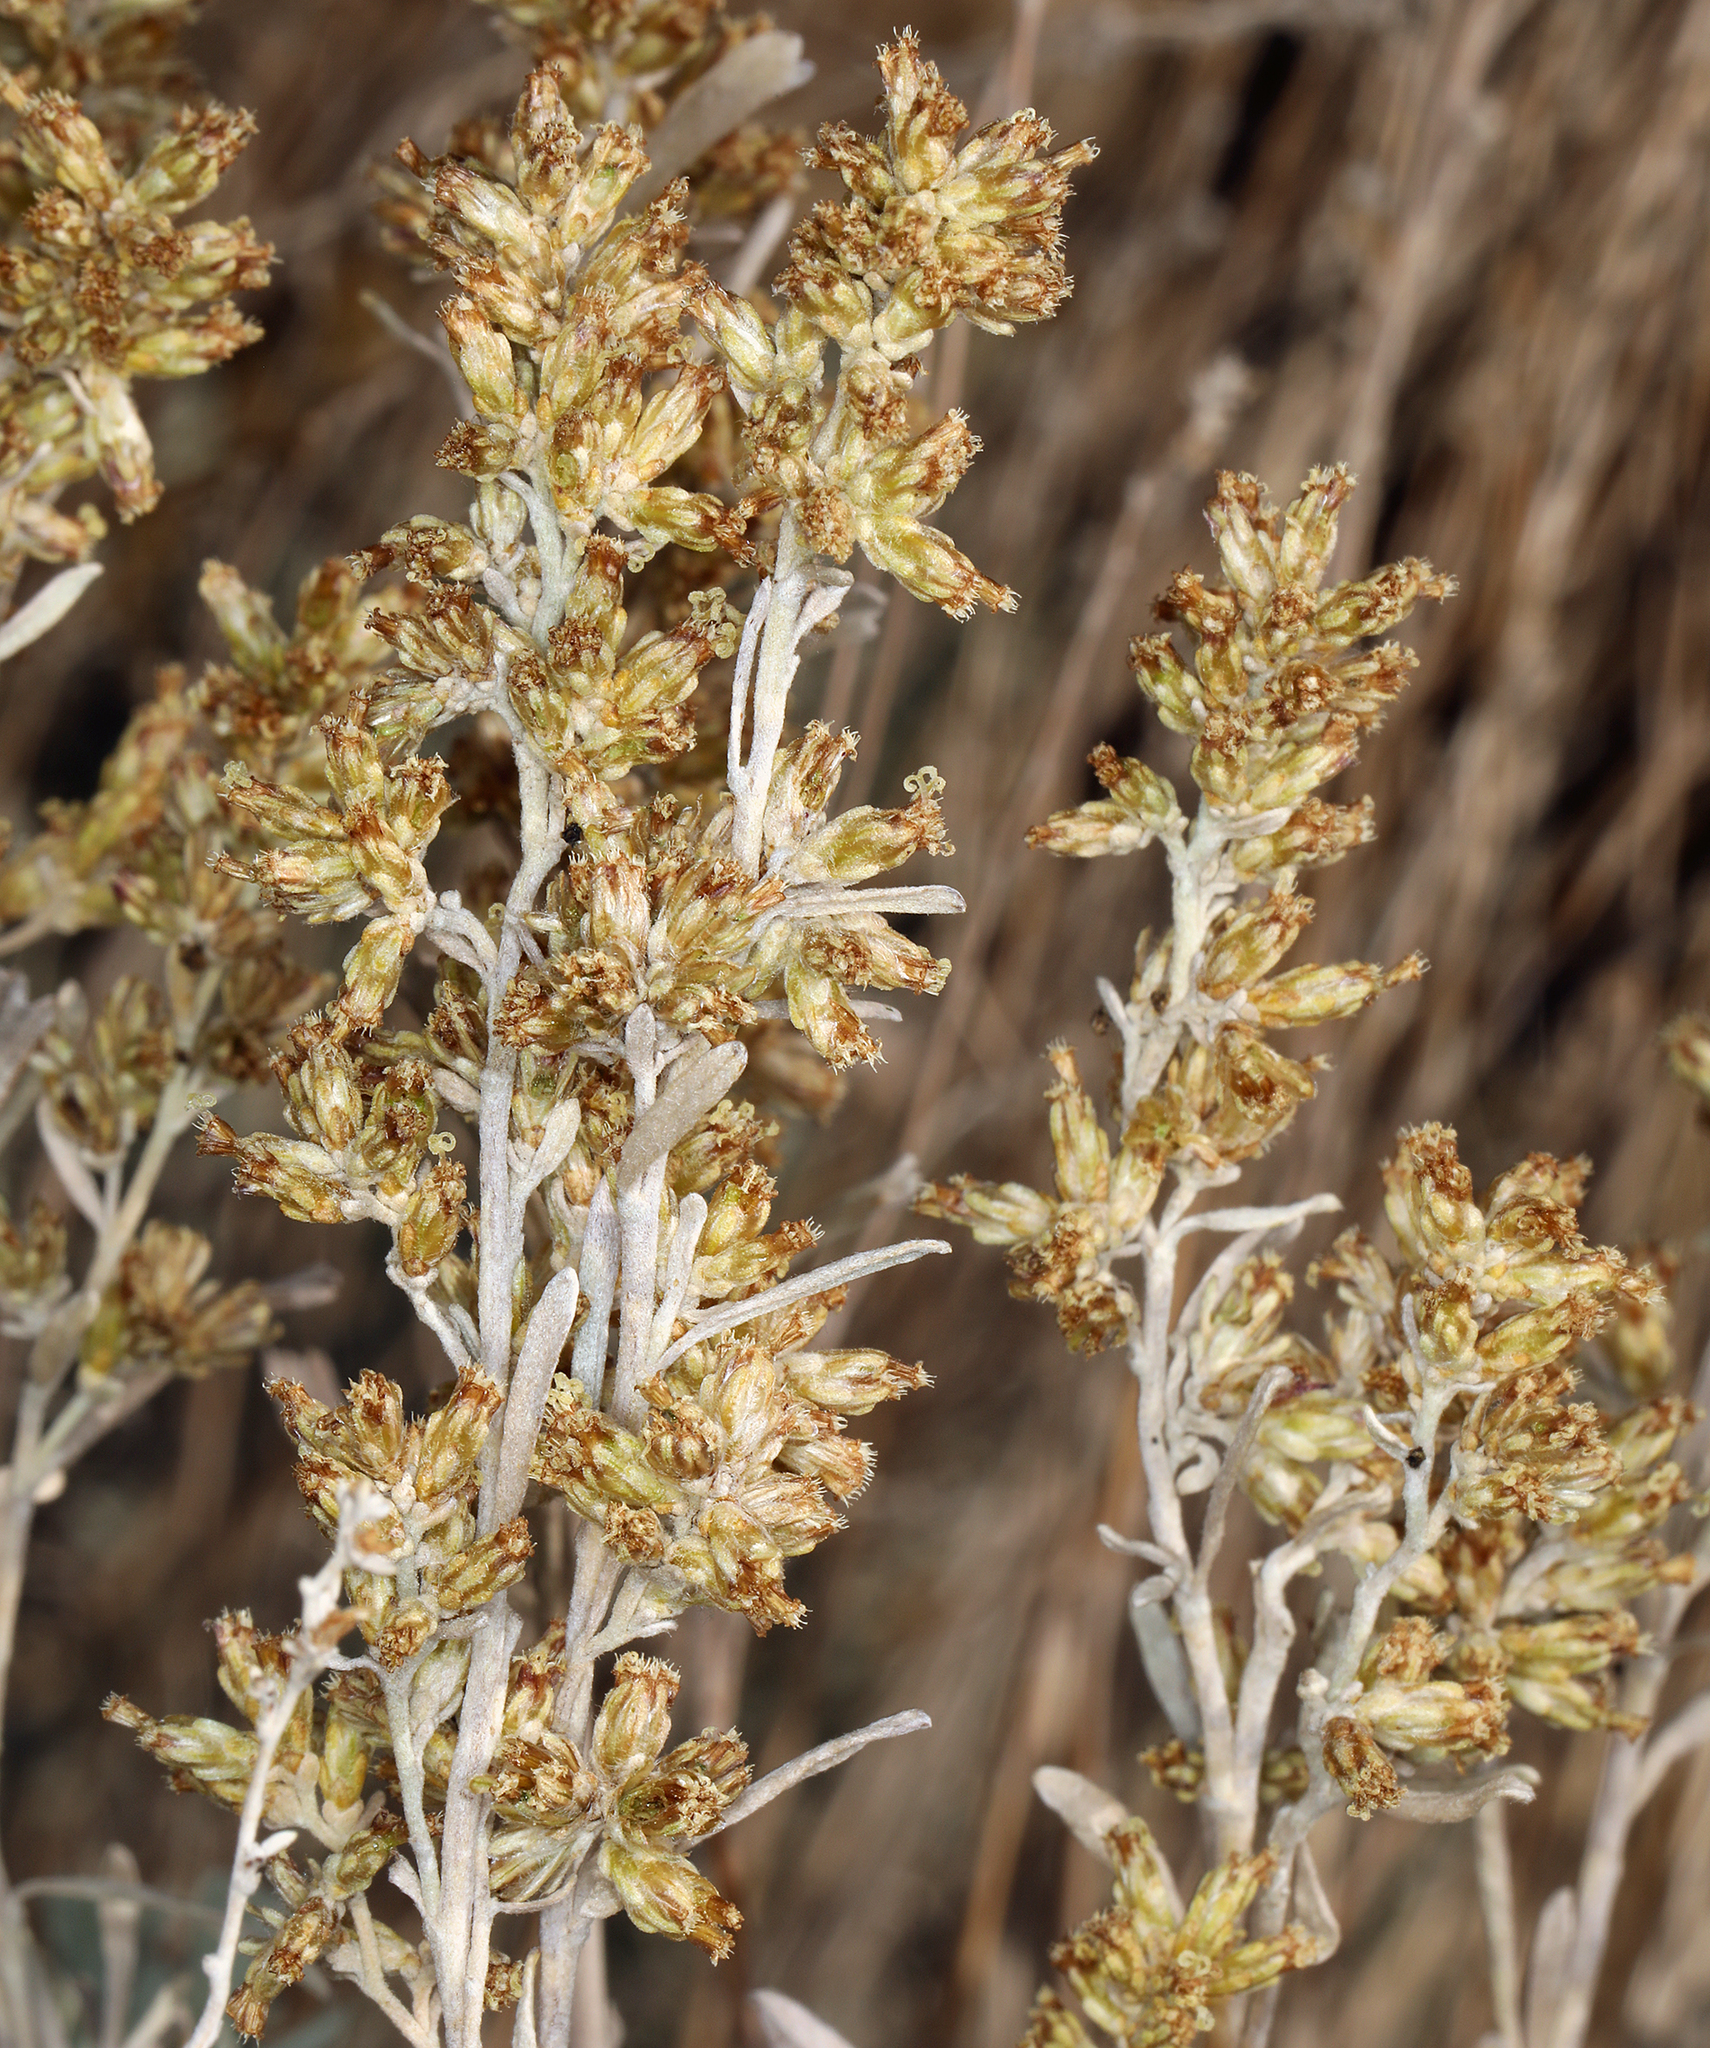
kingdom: Plantae
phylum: Tracheophyta
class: Magnoliopsida
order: Asterales
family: Asteraceae
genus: Artemisia
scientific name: Artemisia tridentata
